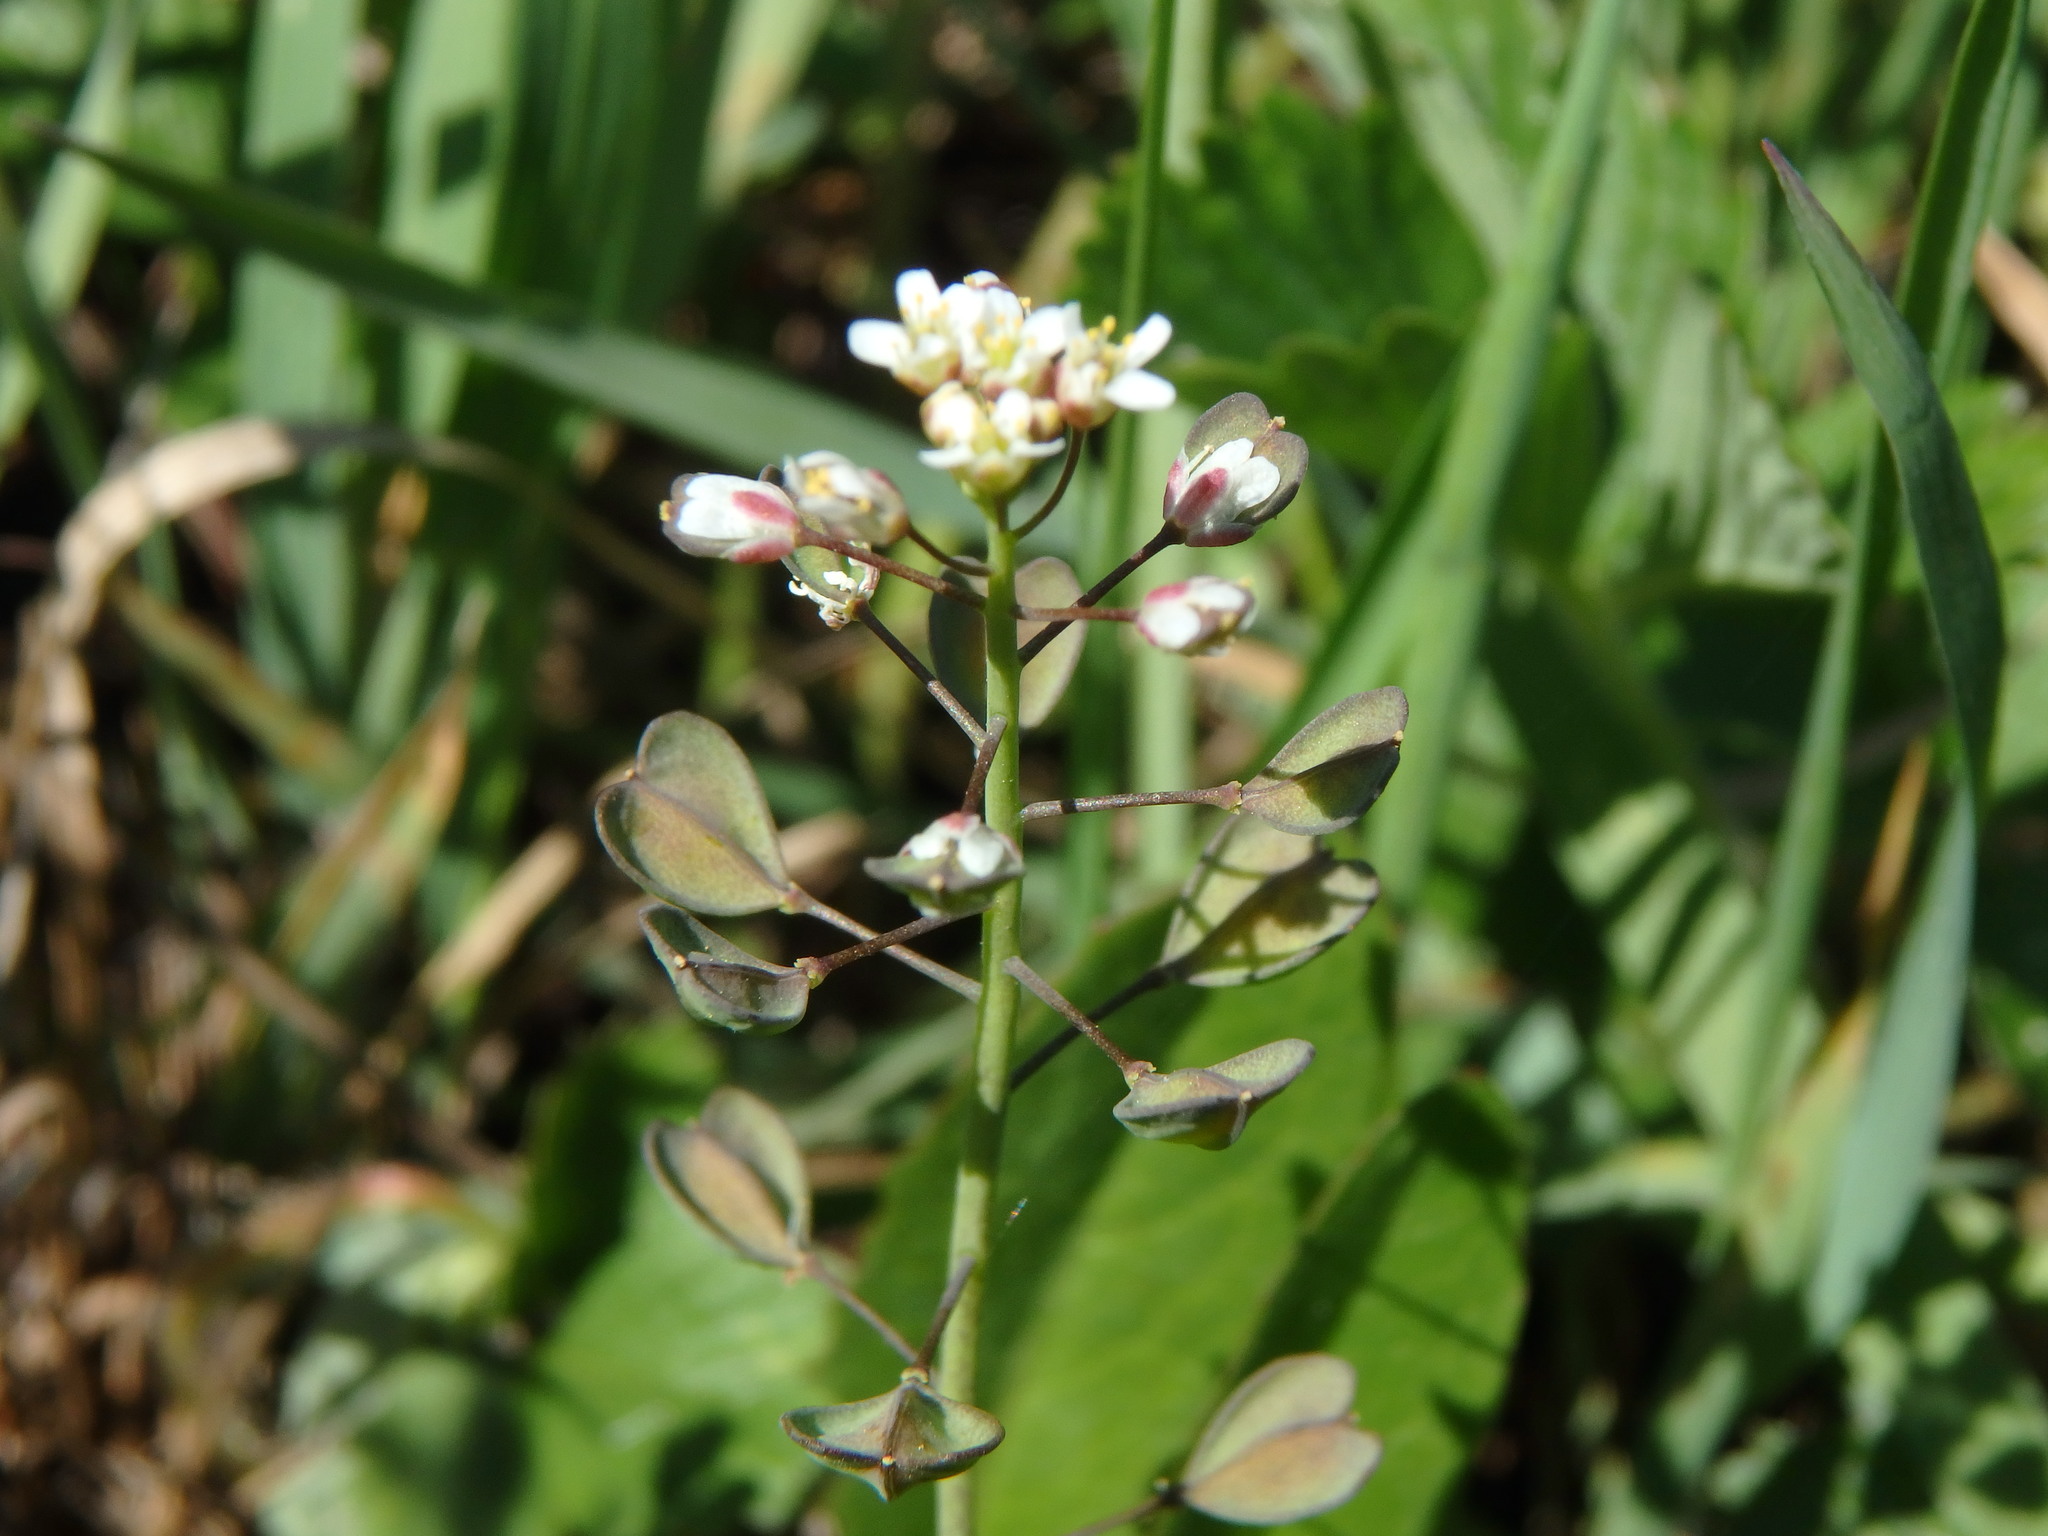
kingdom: Plantae
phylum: Tracheophyta
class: Magnoliopsida
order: Brassicales
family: Brassicaceae
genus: Noccaea
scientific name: Noccaea perfoliata
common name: Perfoliate pennycress
